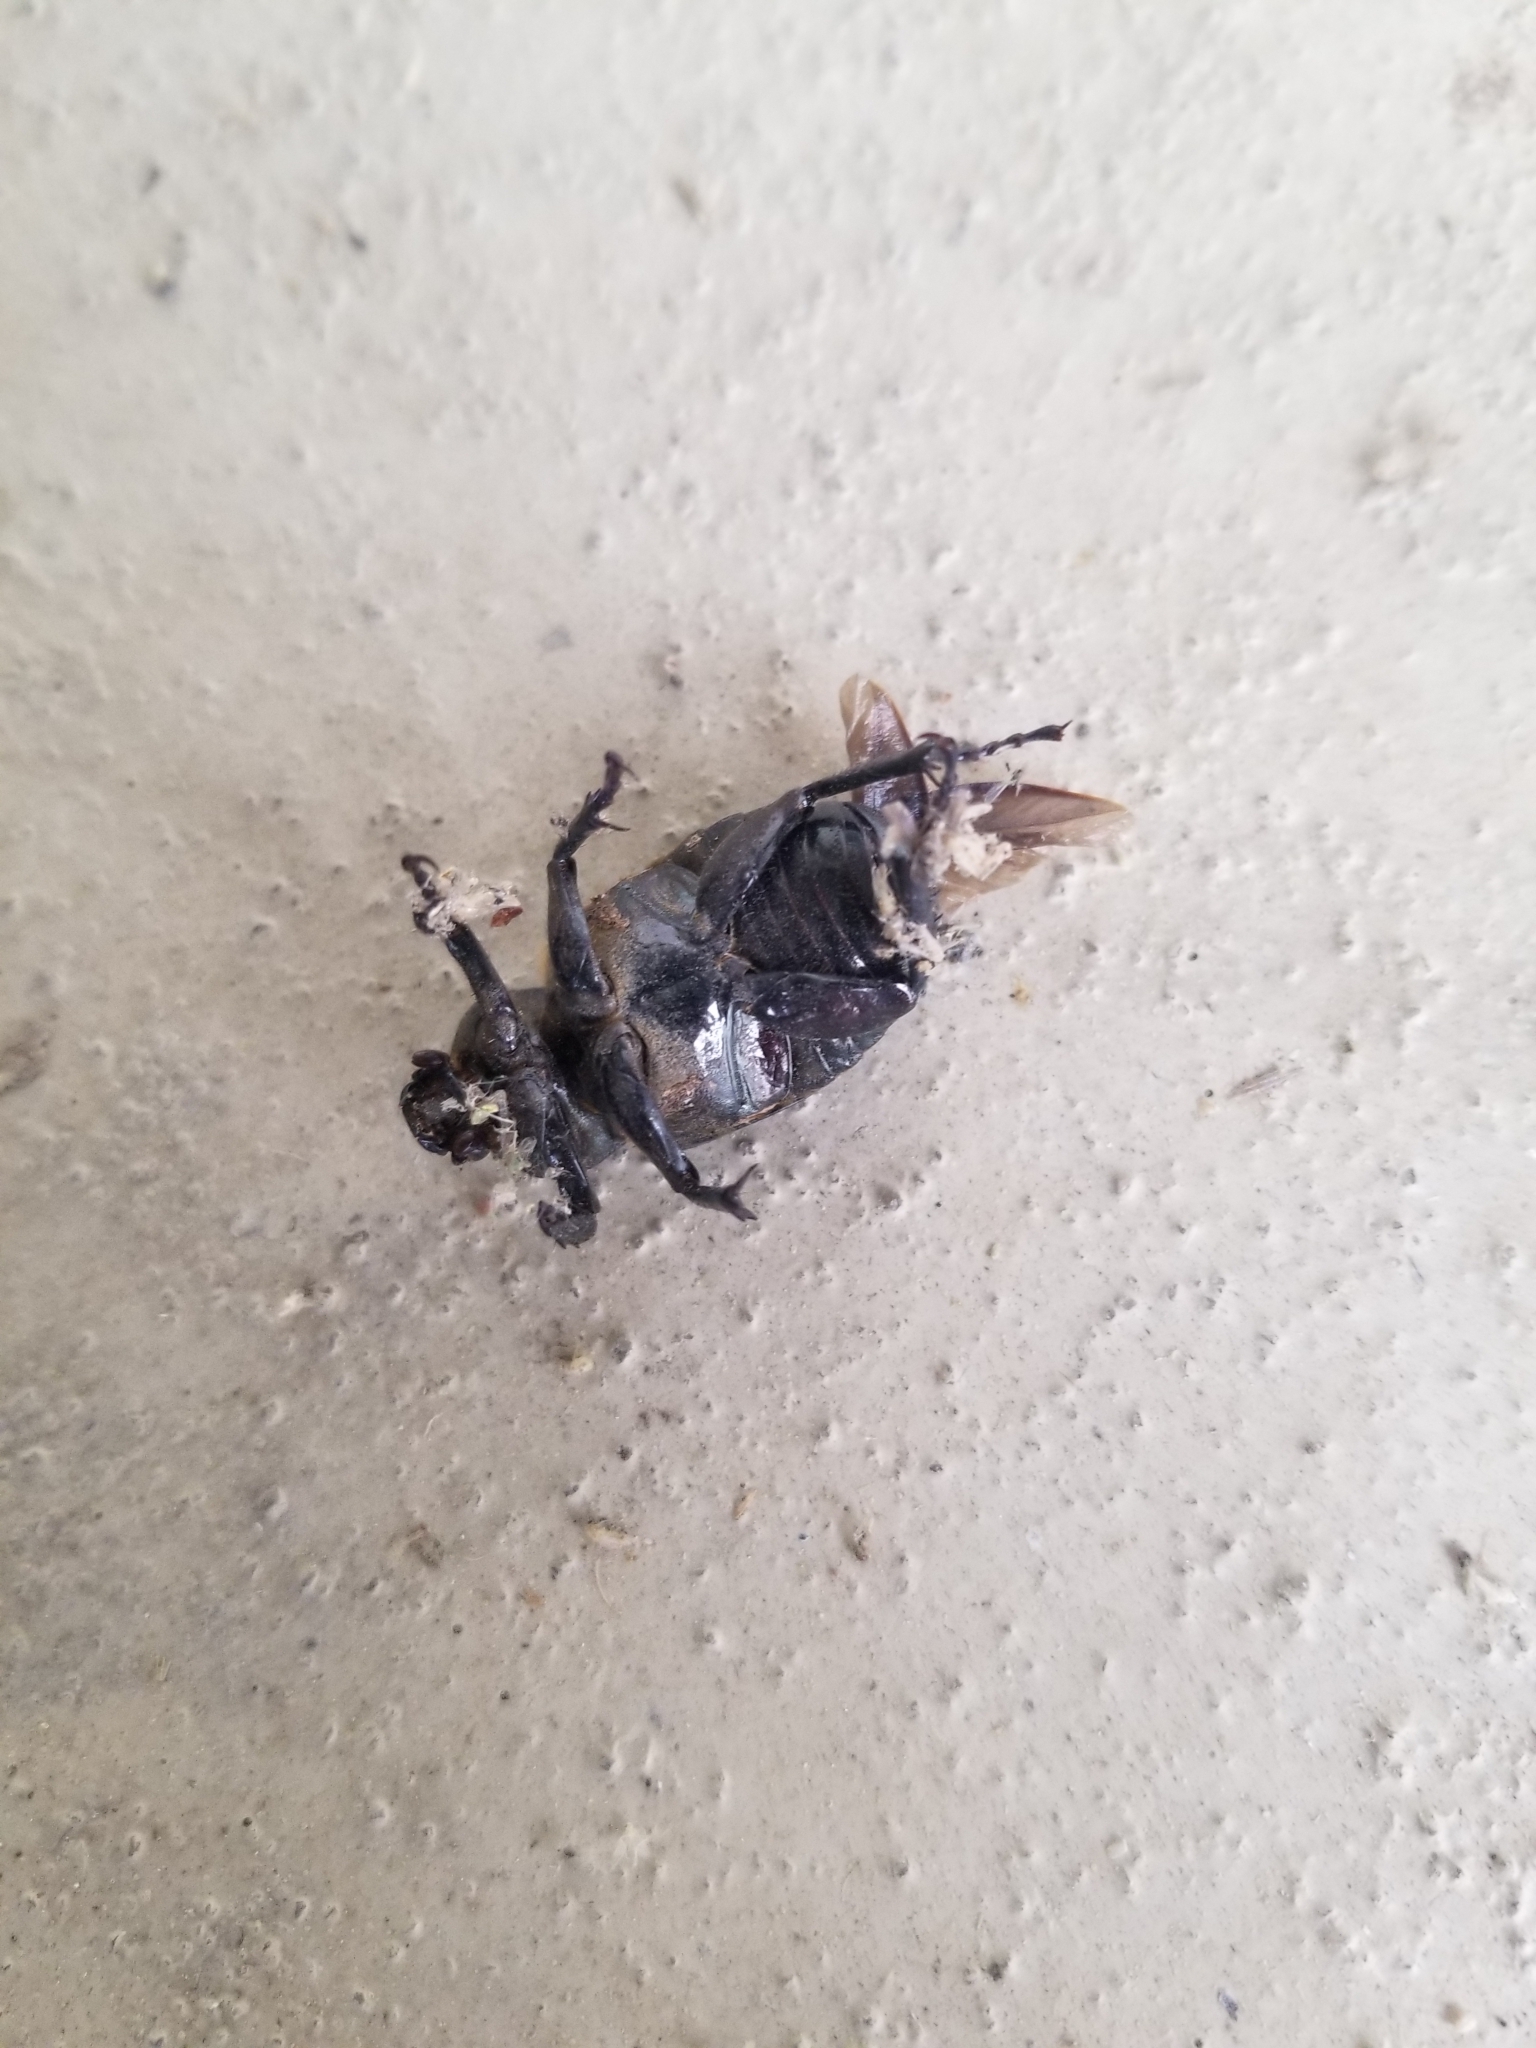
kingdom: Animalia
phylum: Arthropoda
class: Insecta
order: Coleoptera
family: Scarabaeidae
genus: Osmoderma
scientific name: Osmoderma subplanata
